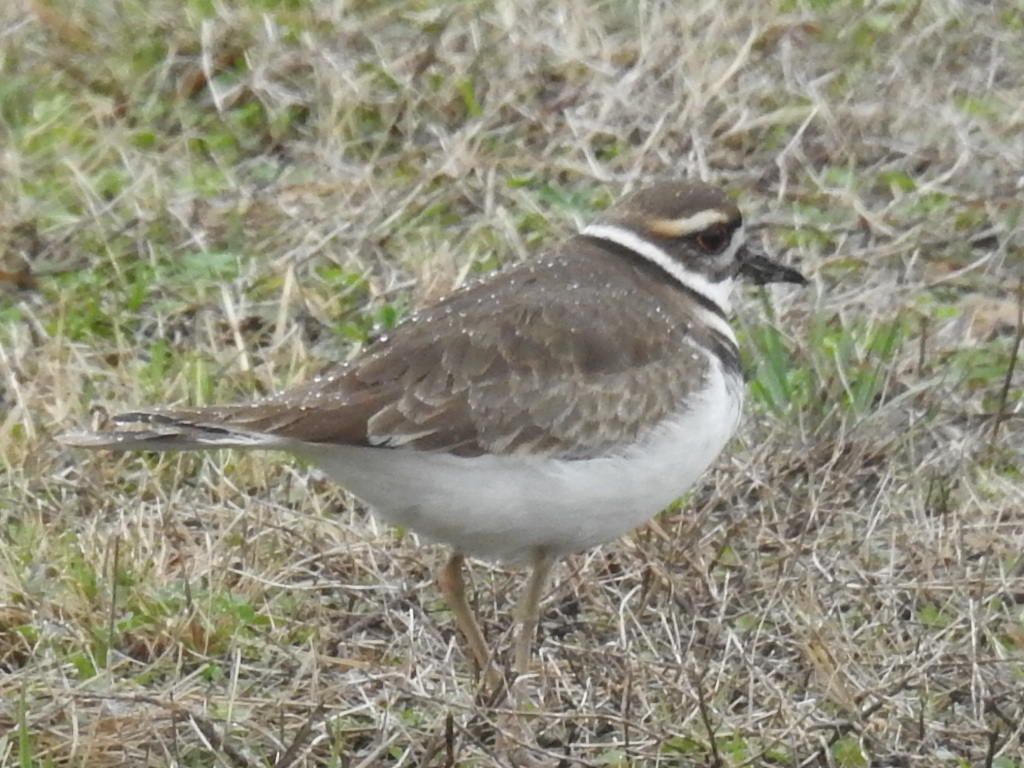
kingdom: Animalia
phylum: Chordata
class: Aves
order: Charadriiformes
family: Charadriidae
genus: Charadrius
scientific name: Charadrius vociferus
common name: Killdeer
